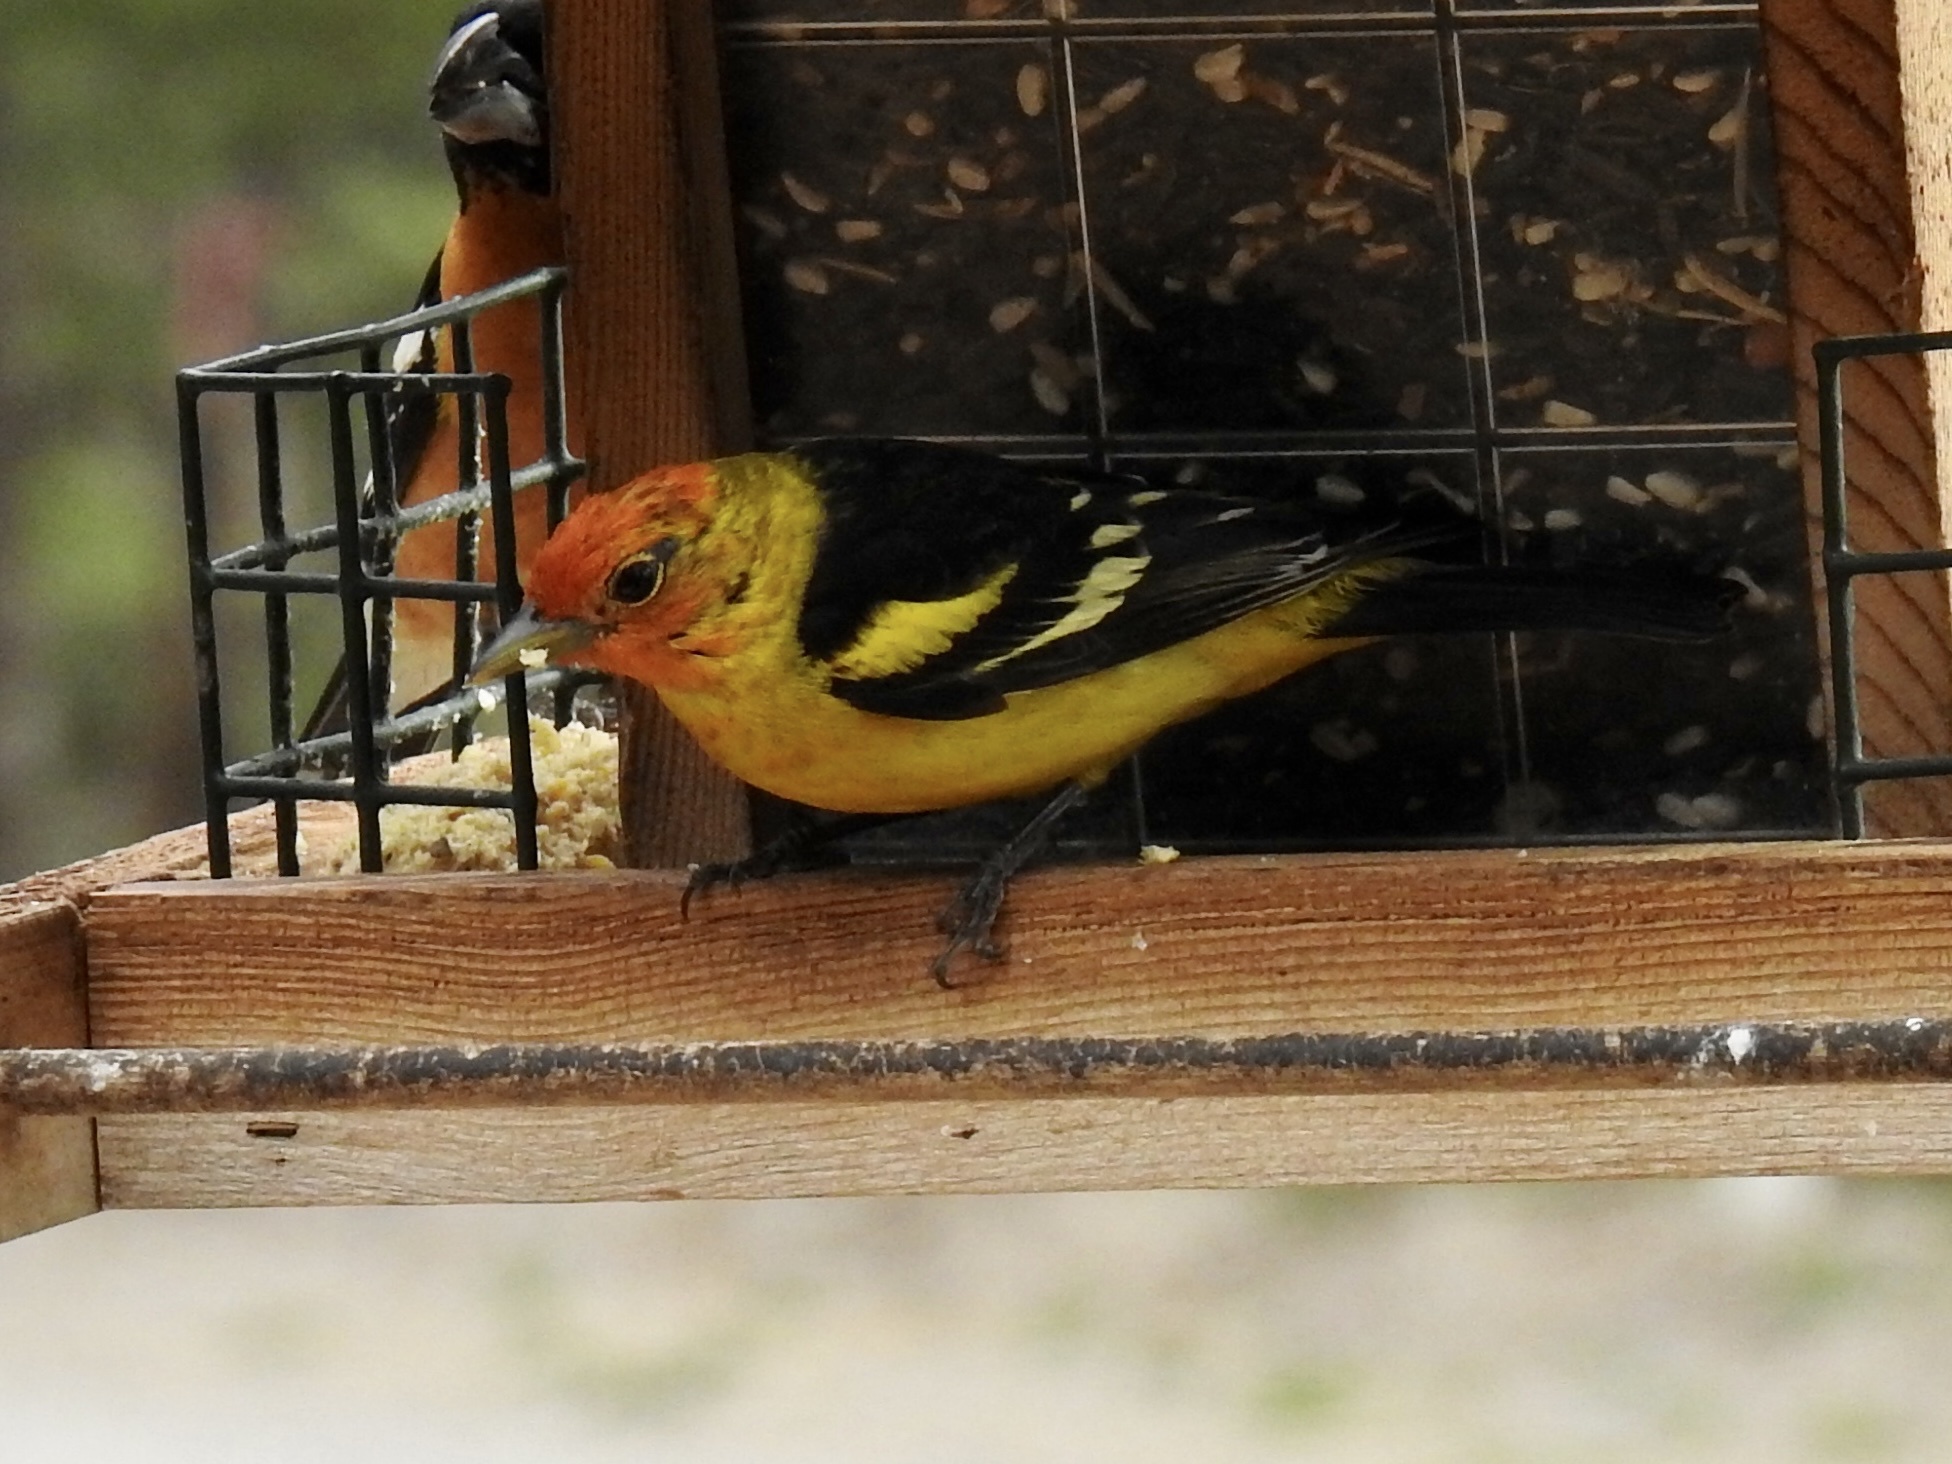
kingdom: Animalia
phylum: Chordata
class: Aves
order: Passeriformes
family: Cardinalidae
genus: Piranga
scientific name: Piranga ludoviciana
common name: Western tanager
